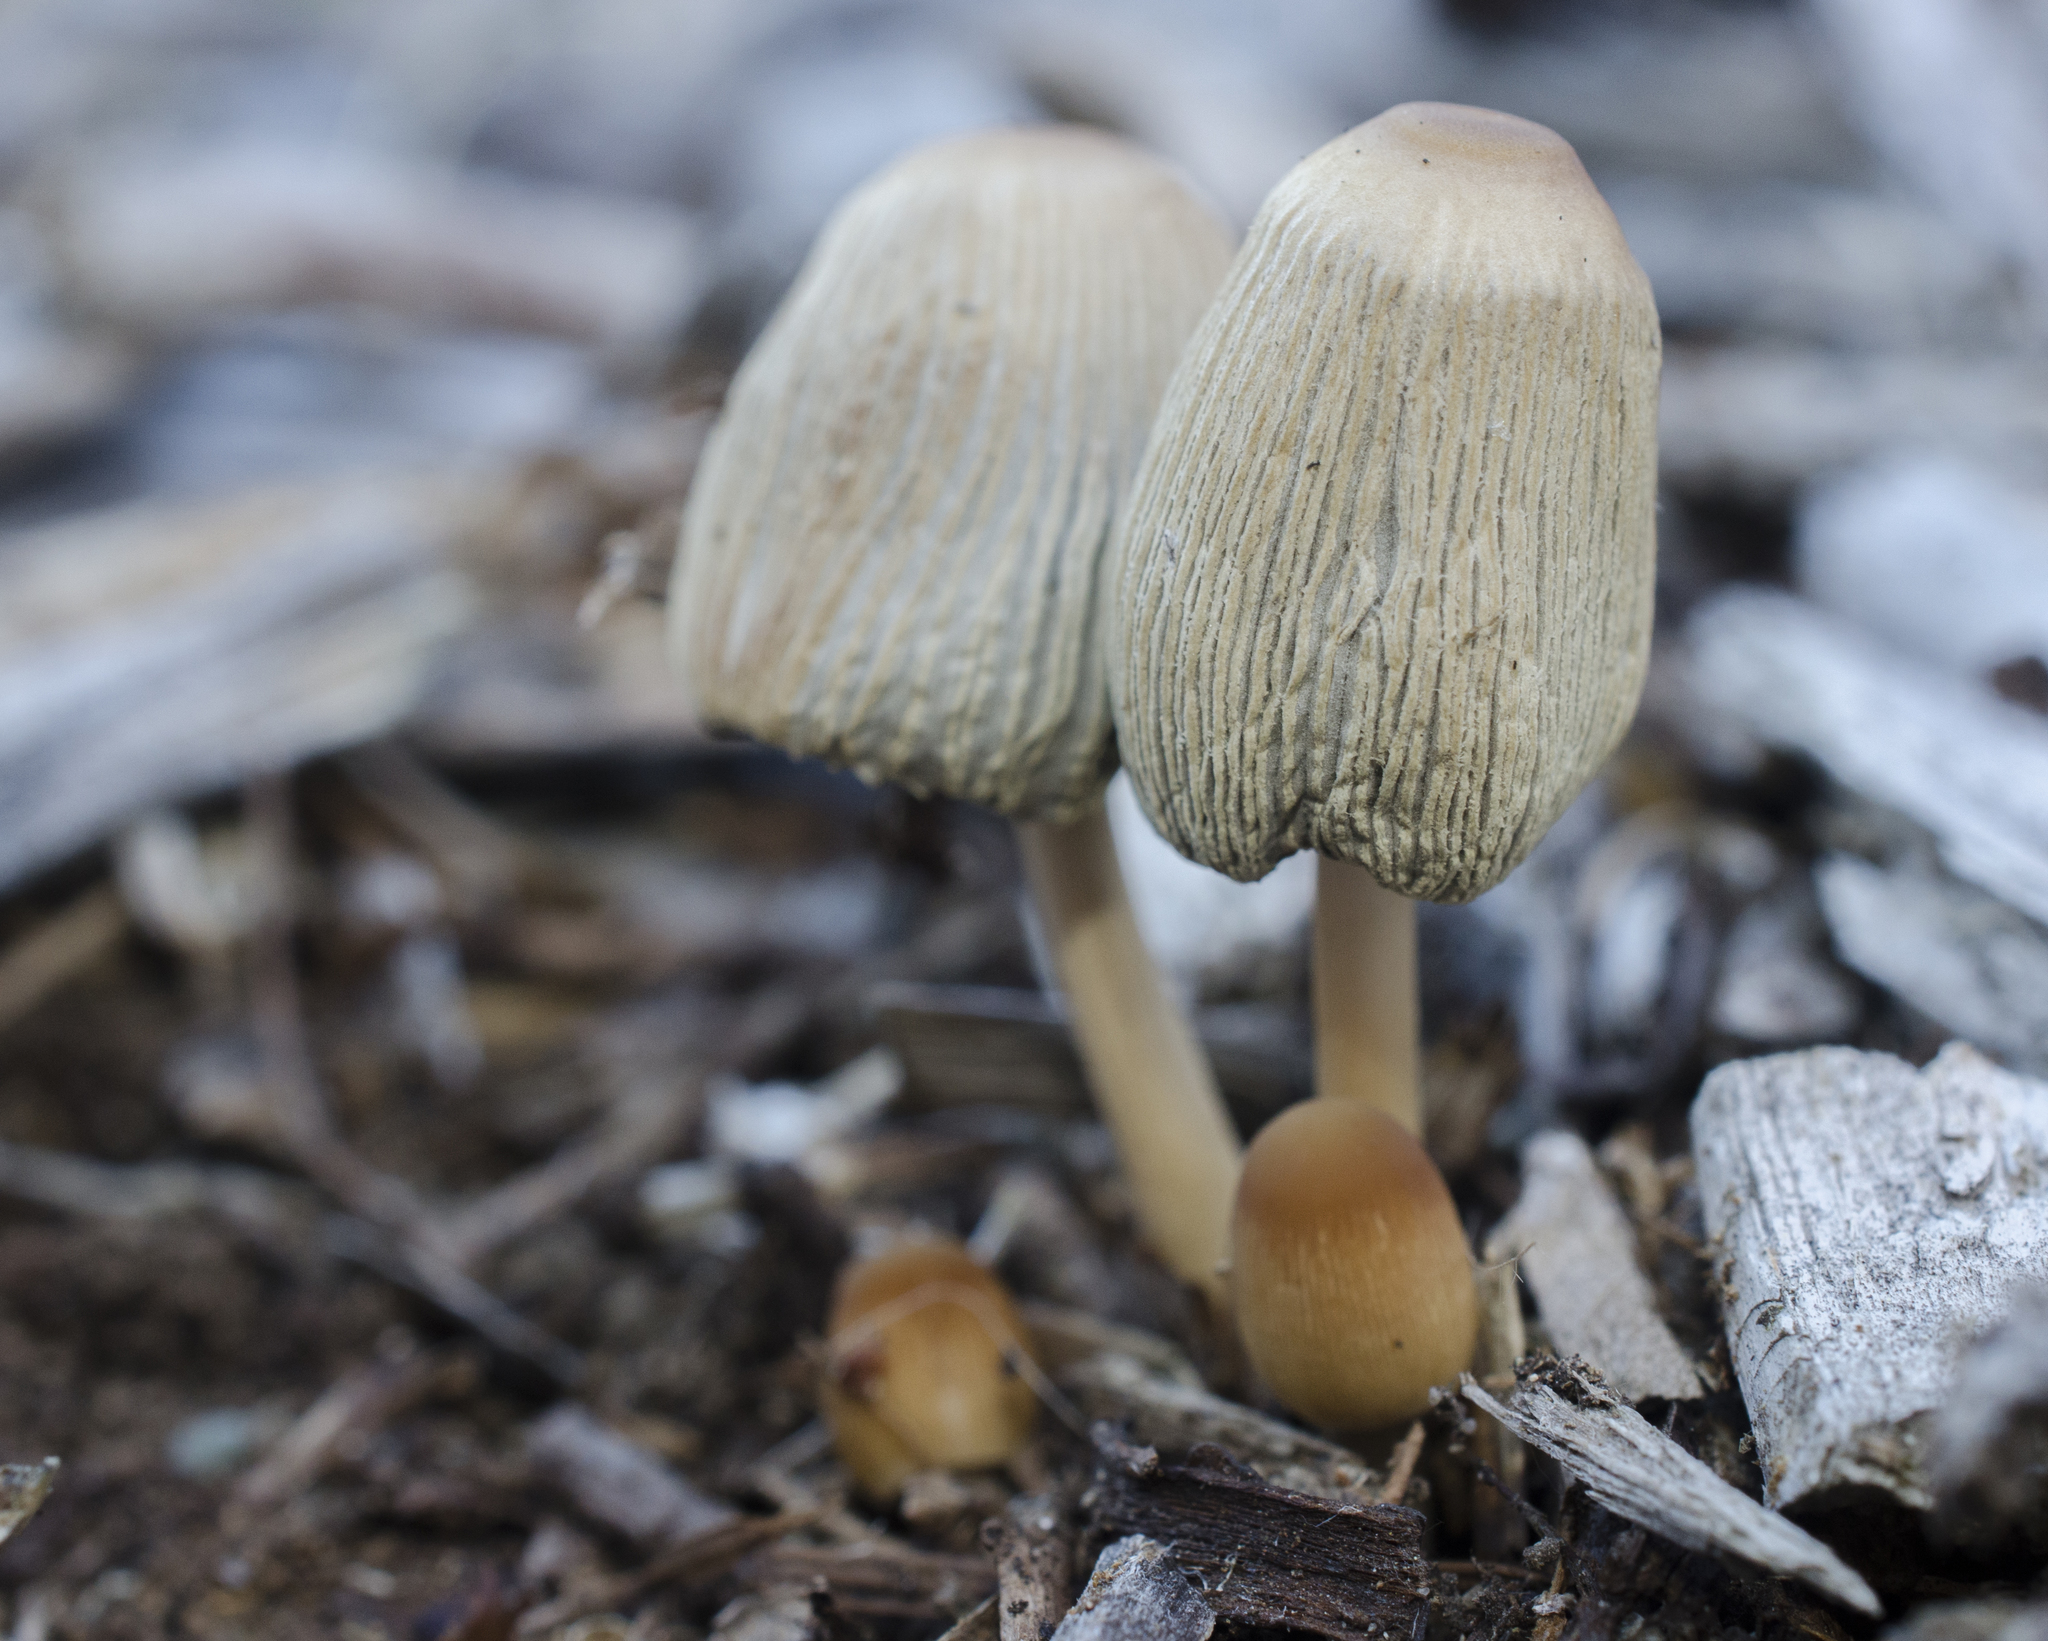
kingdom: Fungi
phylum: Basidiomycota
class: Agaricomycetes
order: Agaricales
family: Psathyrellaceae
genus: Parasola
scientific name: Parasola auricoma
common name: Goldenhaired inkcap
